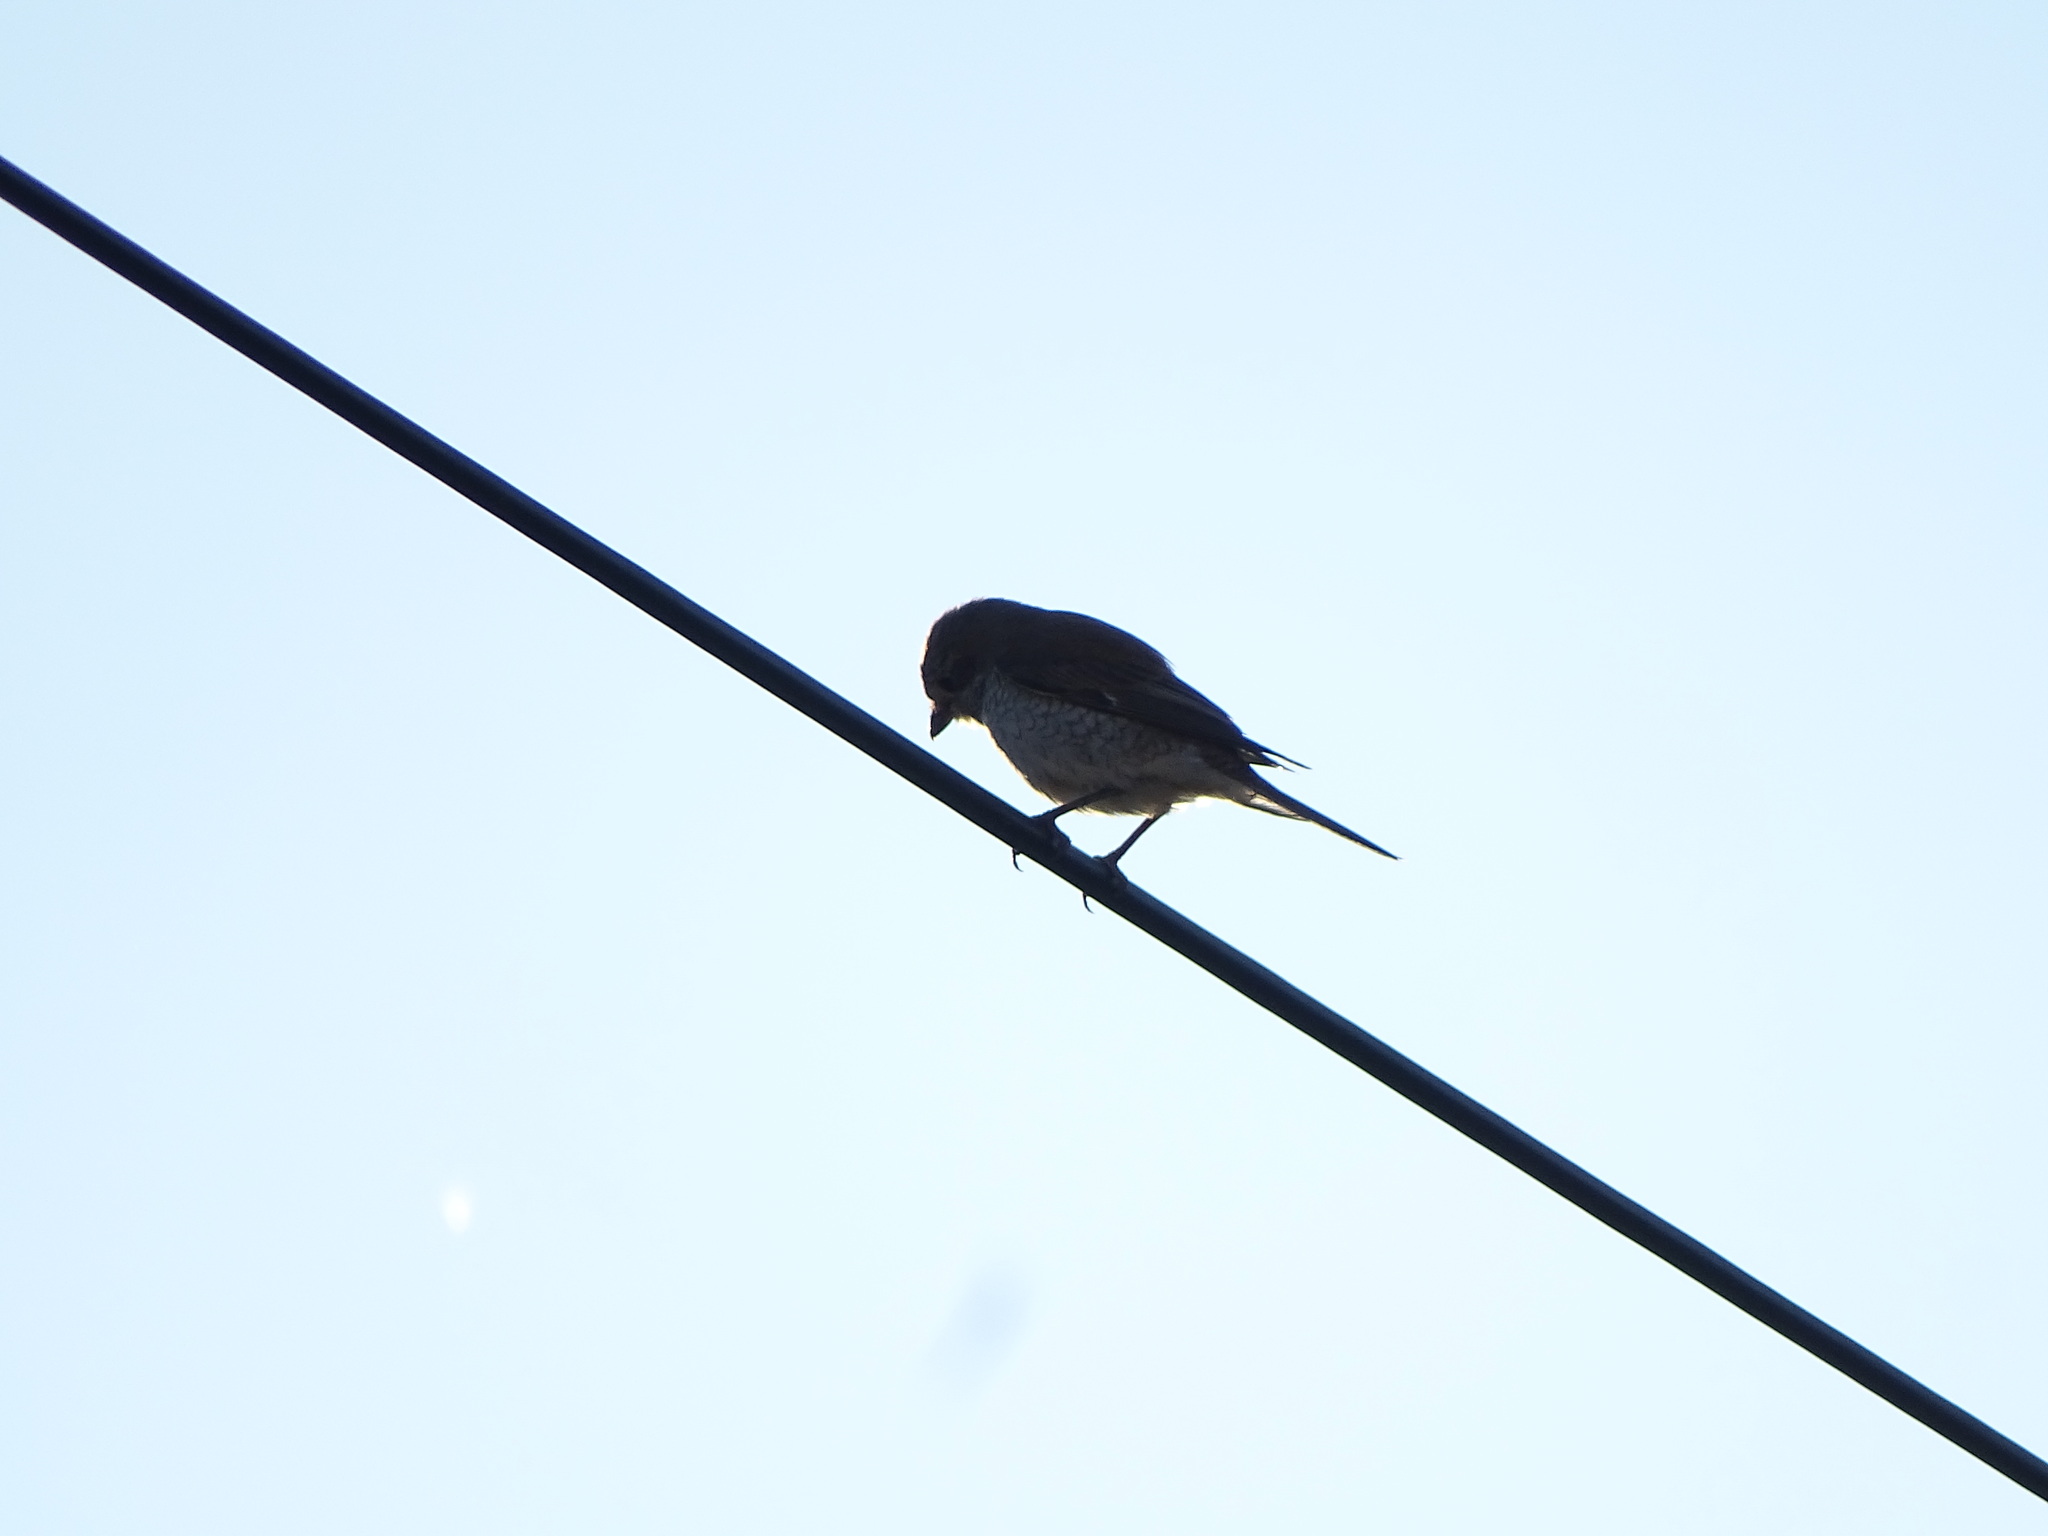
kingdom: Animalia
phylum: Chordata
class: Aves
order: Passeriformes
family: Laniidae
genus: Lanius
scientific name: Lanius collurio
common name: Red-backed shrike
